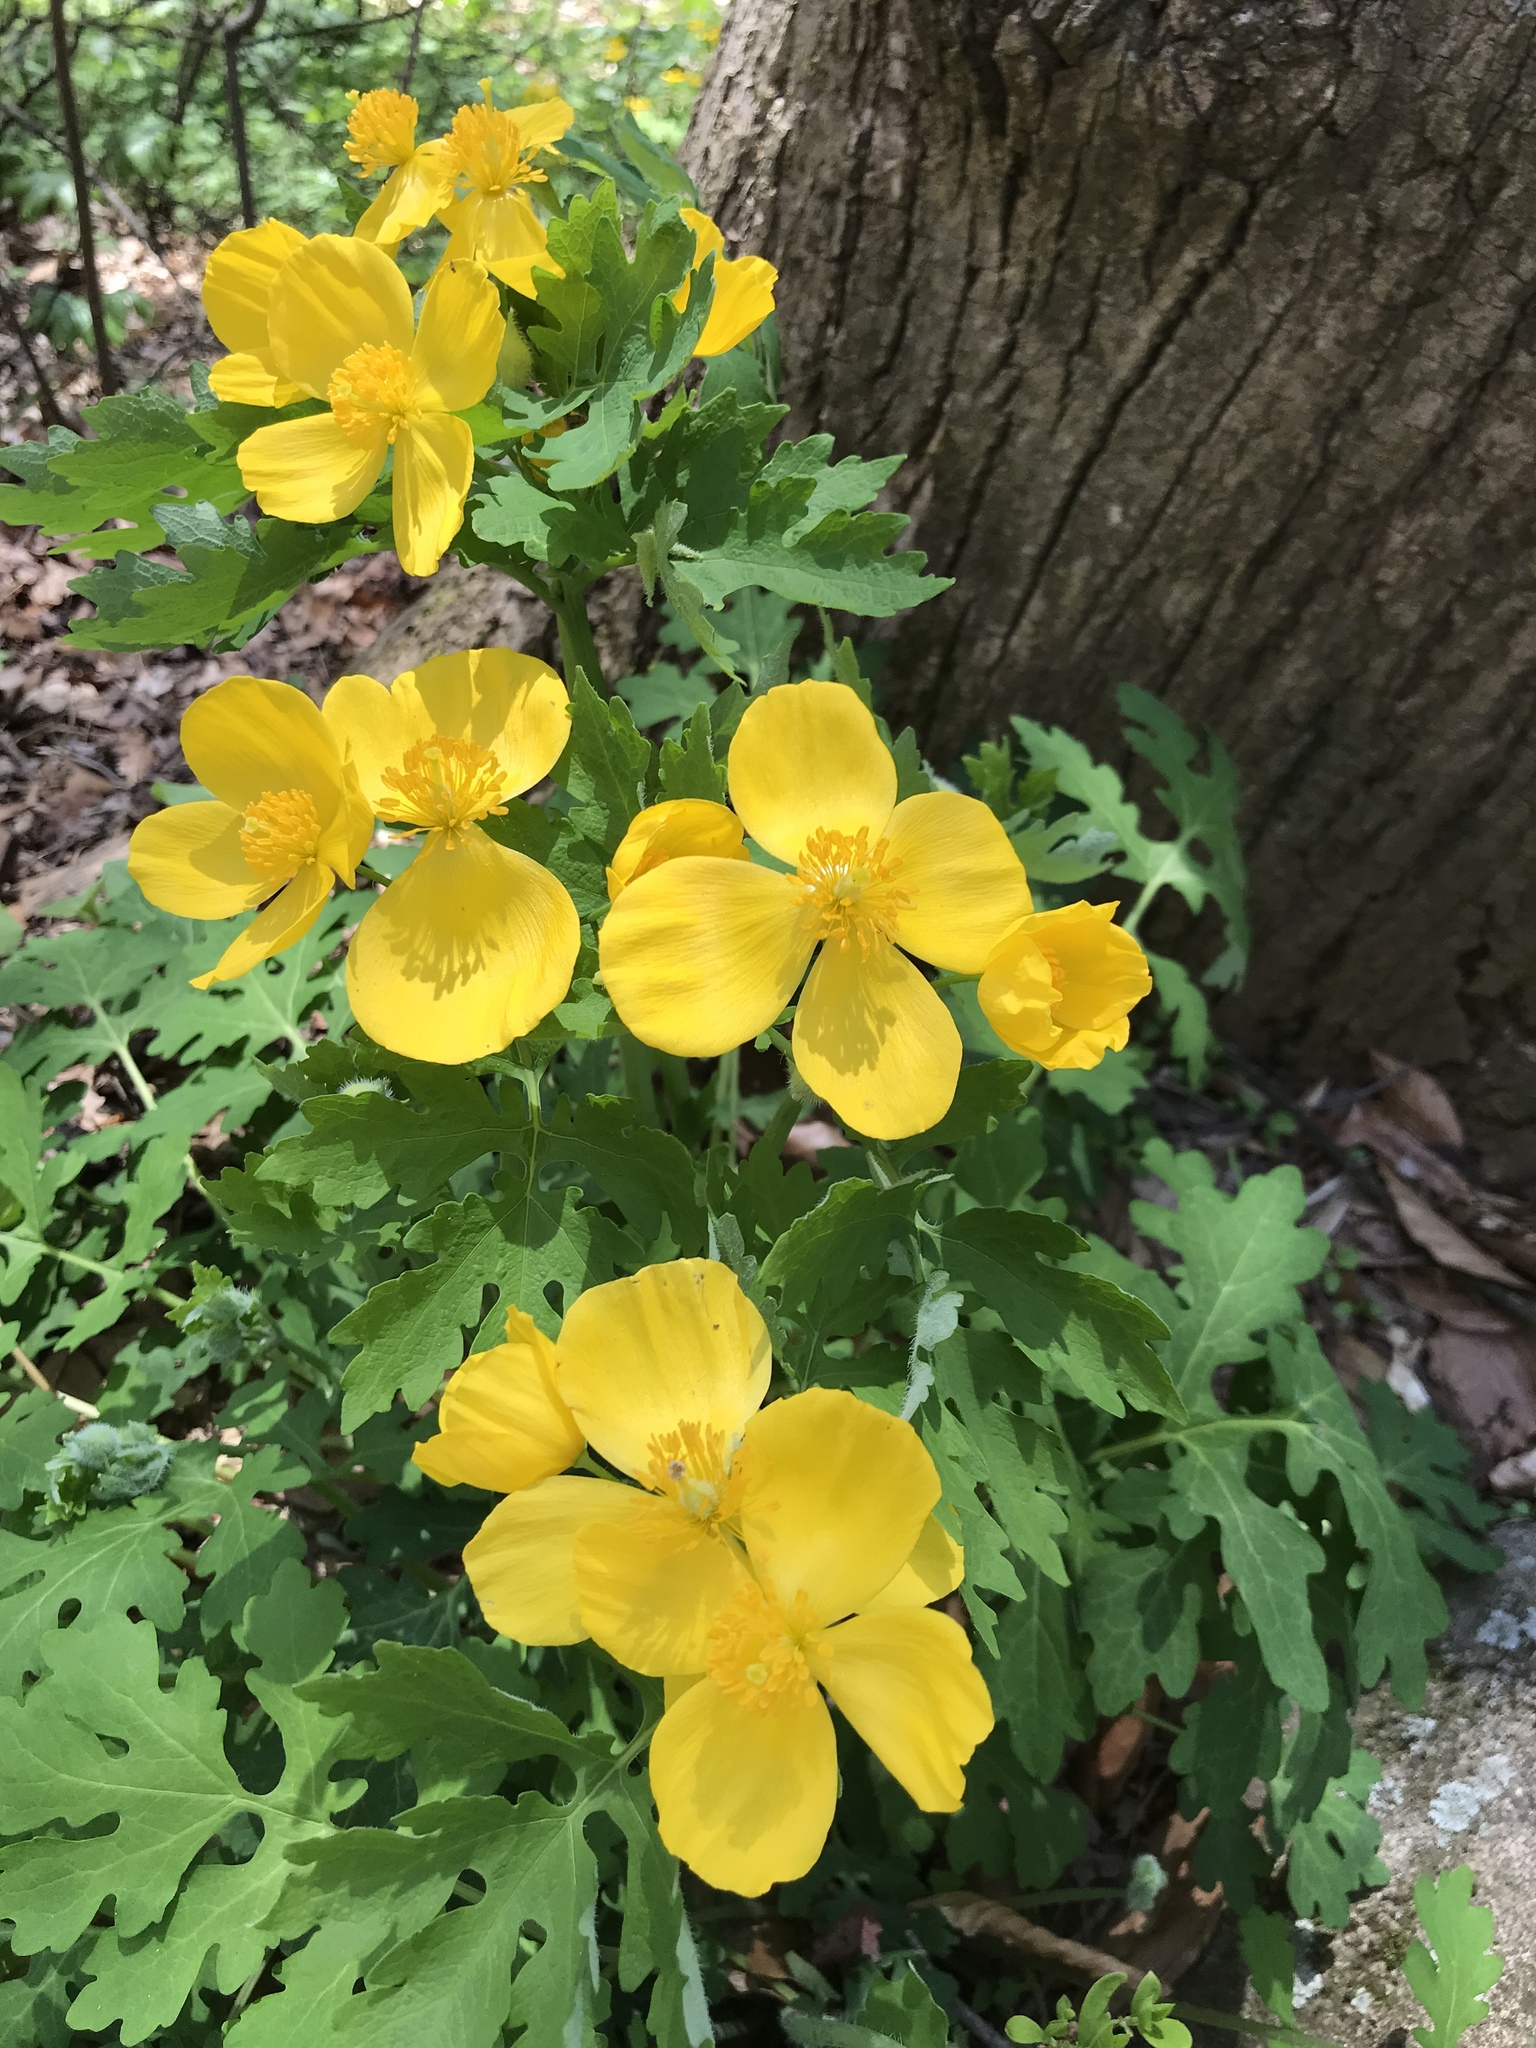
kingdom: Plantae
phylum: Tracheophyta
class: Magnoliopsida
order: Ranunculales
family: Papaveraceae
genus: Stylophorum
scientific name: Stylophorum diphyllum
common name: Celandine poppy
